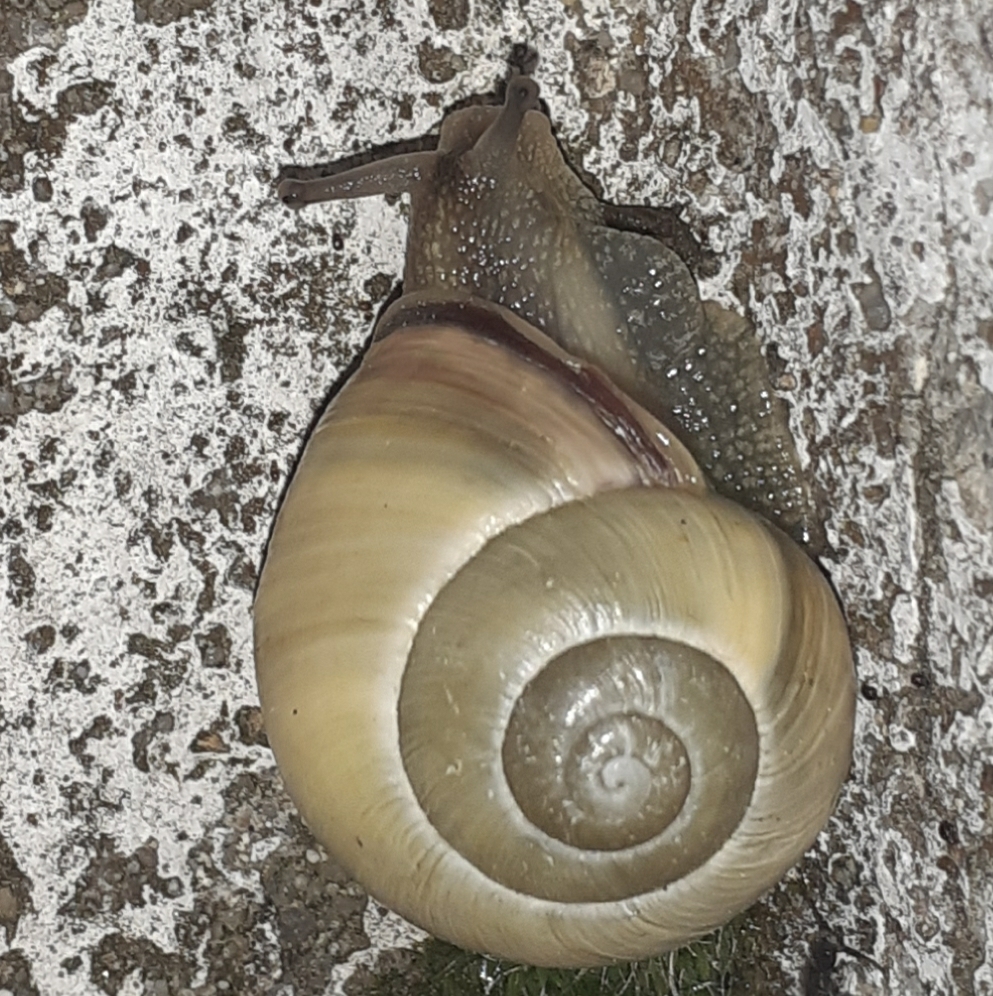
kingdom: Animalia
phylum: Mollusca
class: Gastropoda
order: Stylommatophora
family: Helicidae
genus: Cepaea
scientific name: Cepaea nemoralis
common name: Grovesnail
